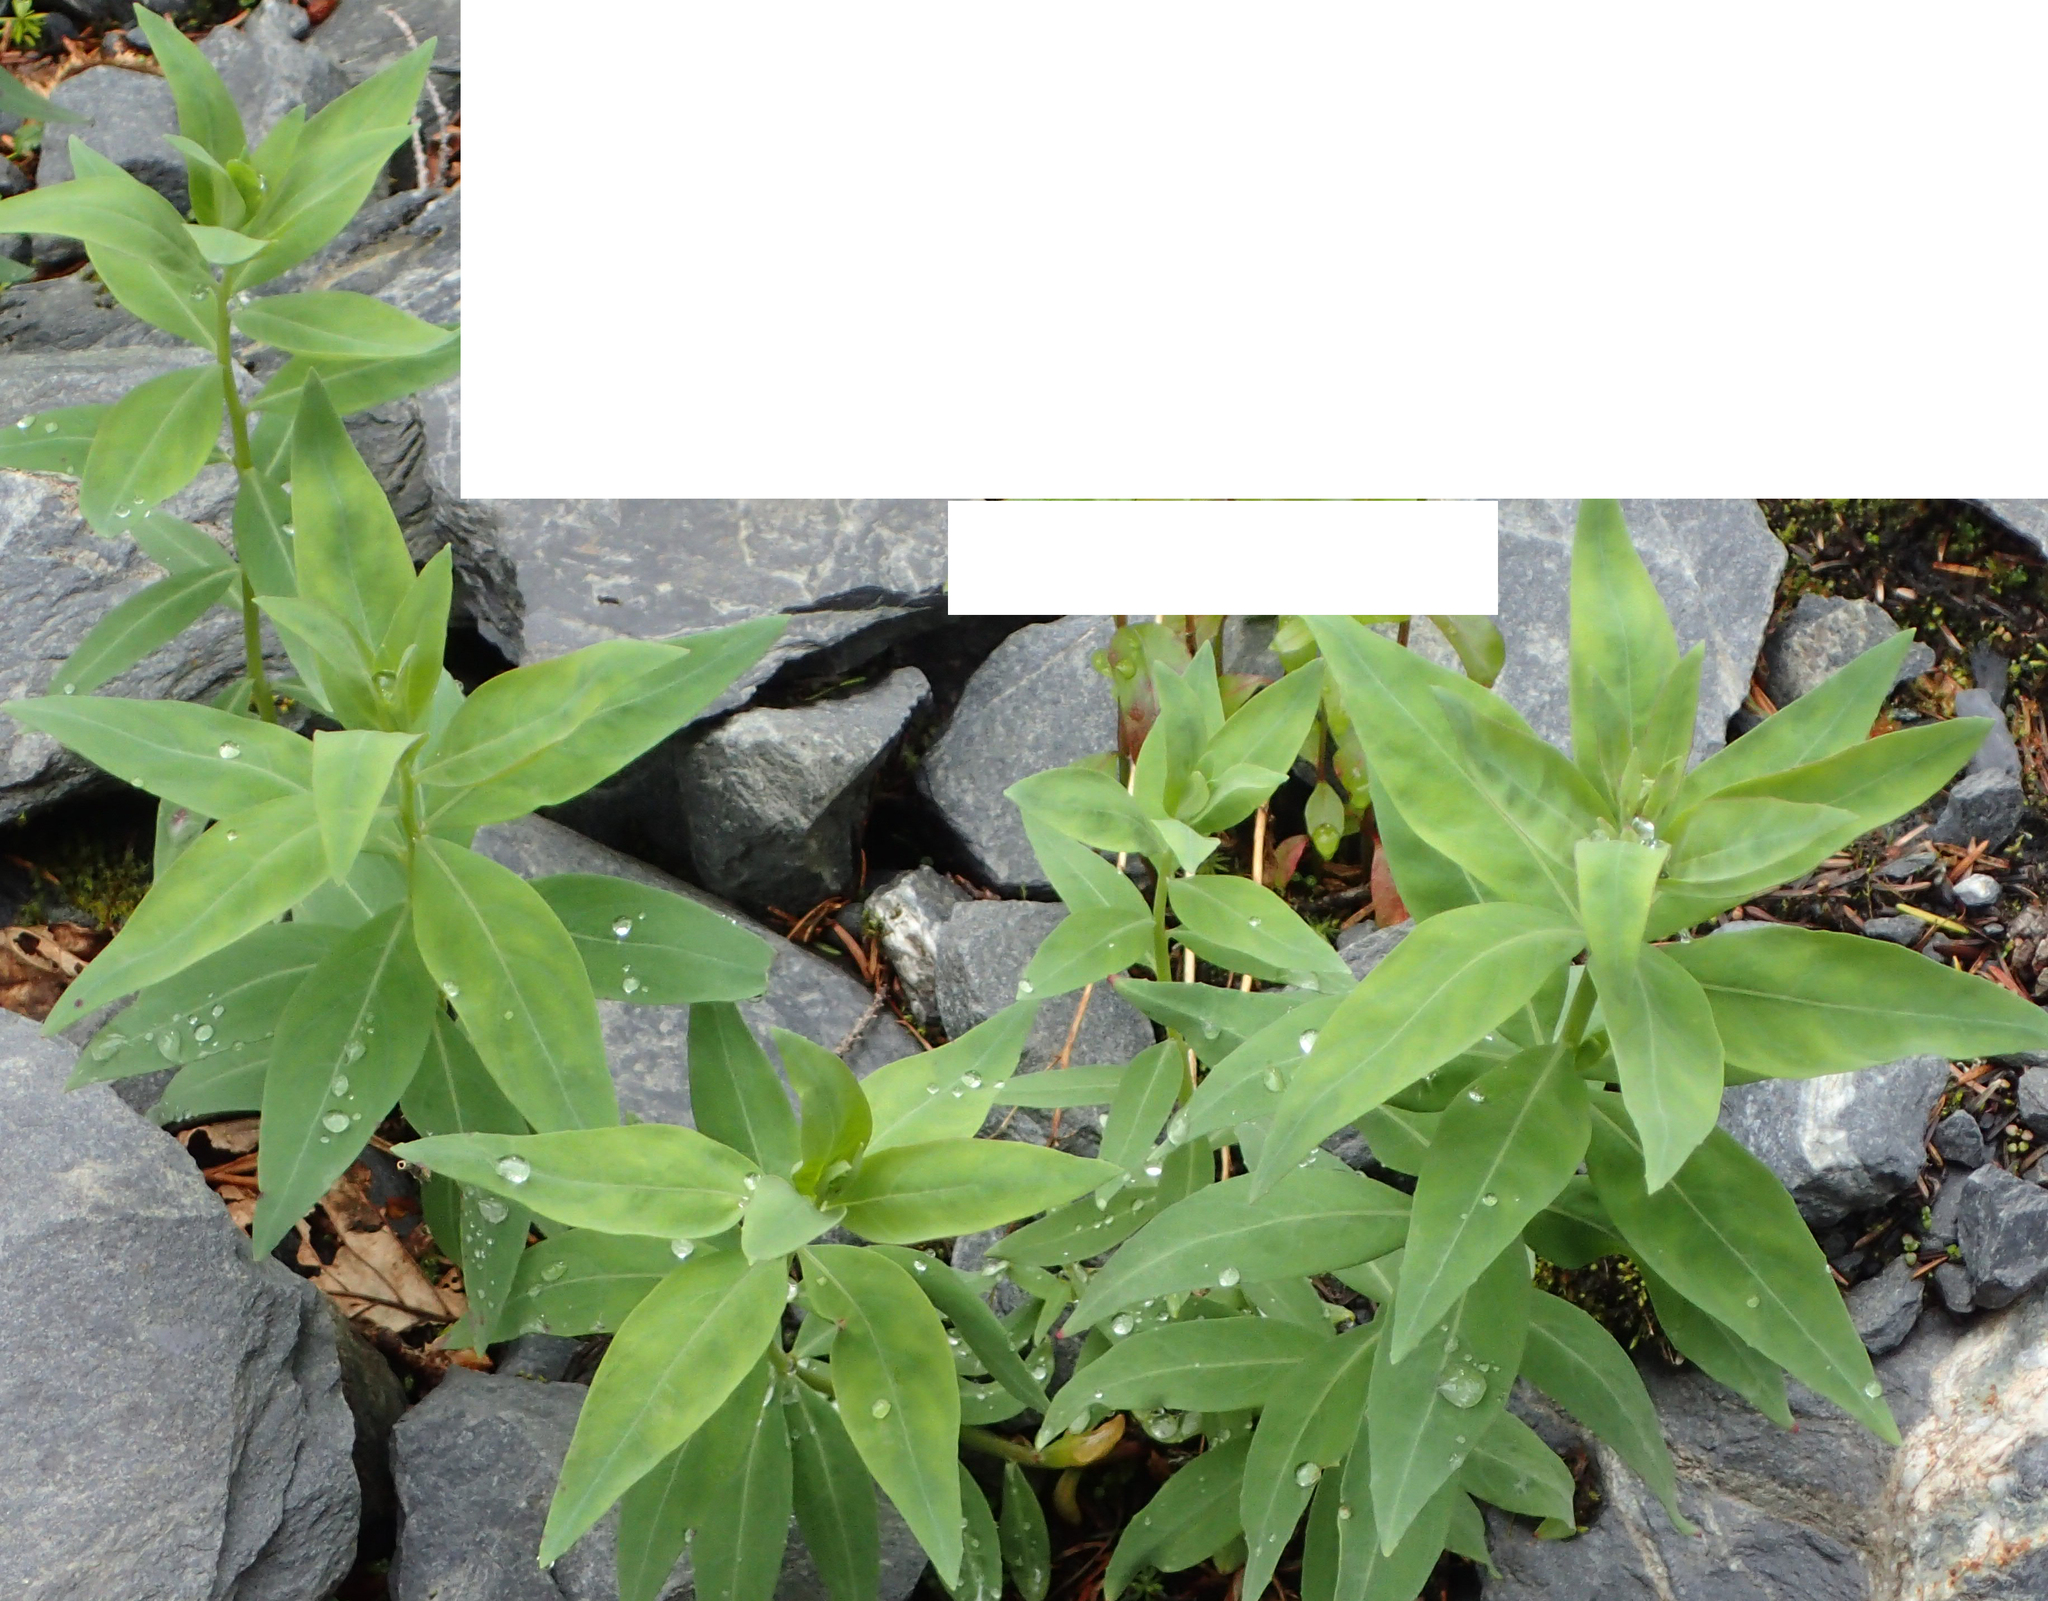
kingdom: Plantae
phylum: Tracheophyta
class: Magnoliopsida
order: Myrtales
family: Onagraceae
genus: Chamaenerion
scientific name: Chamaenerion latifolium
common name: Dwarf fireweed
